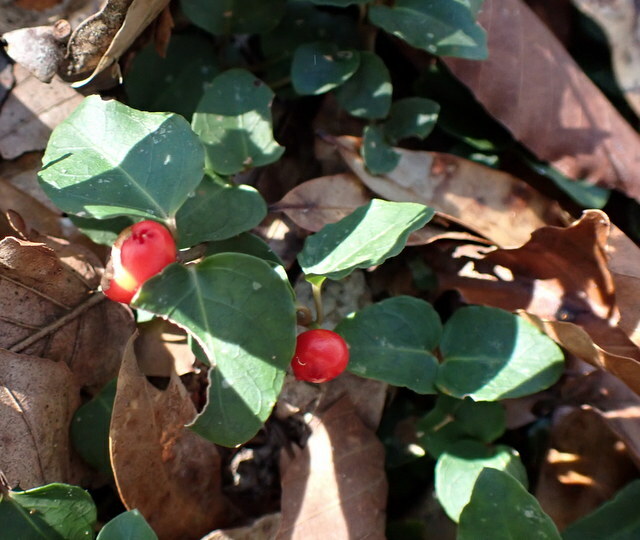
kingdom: Plantae
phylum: Tracheophyta
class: Magnoliopsida
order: Gentianales
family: Rubiaceae
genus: Mitchella
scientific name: Mitchella repens
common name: Partridge-berry
